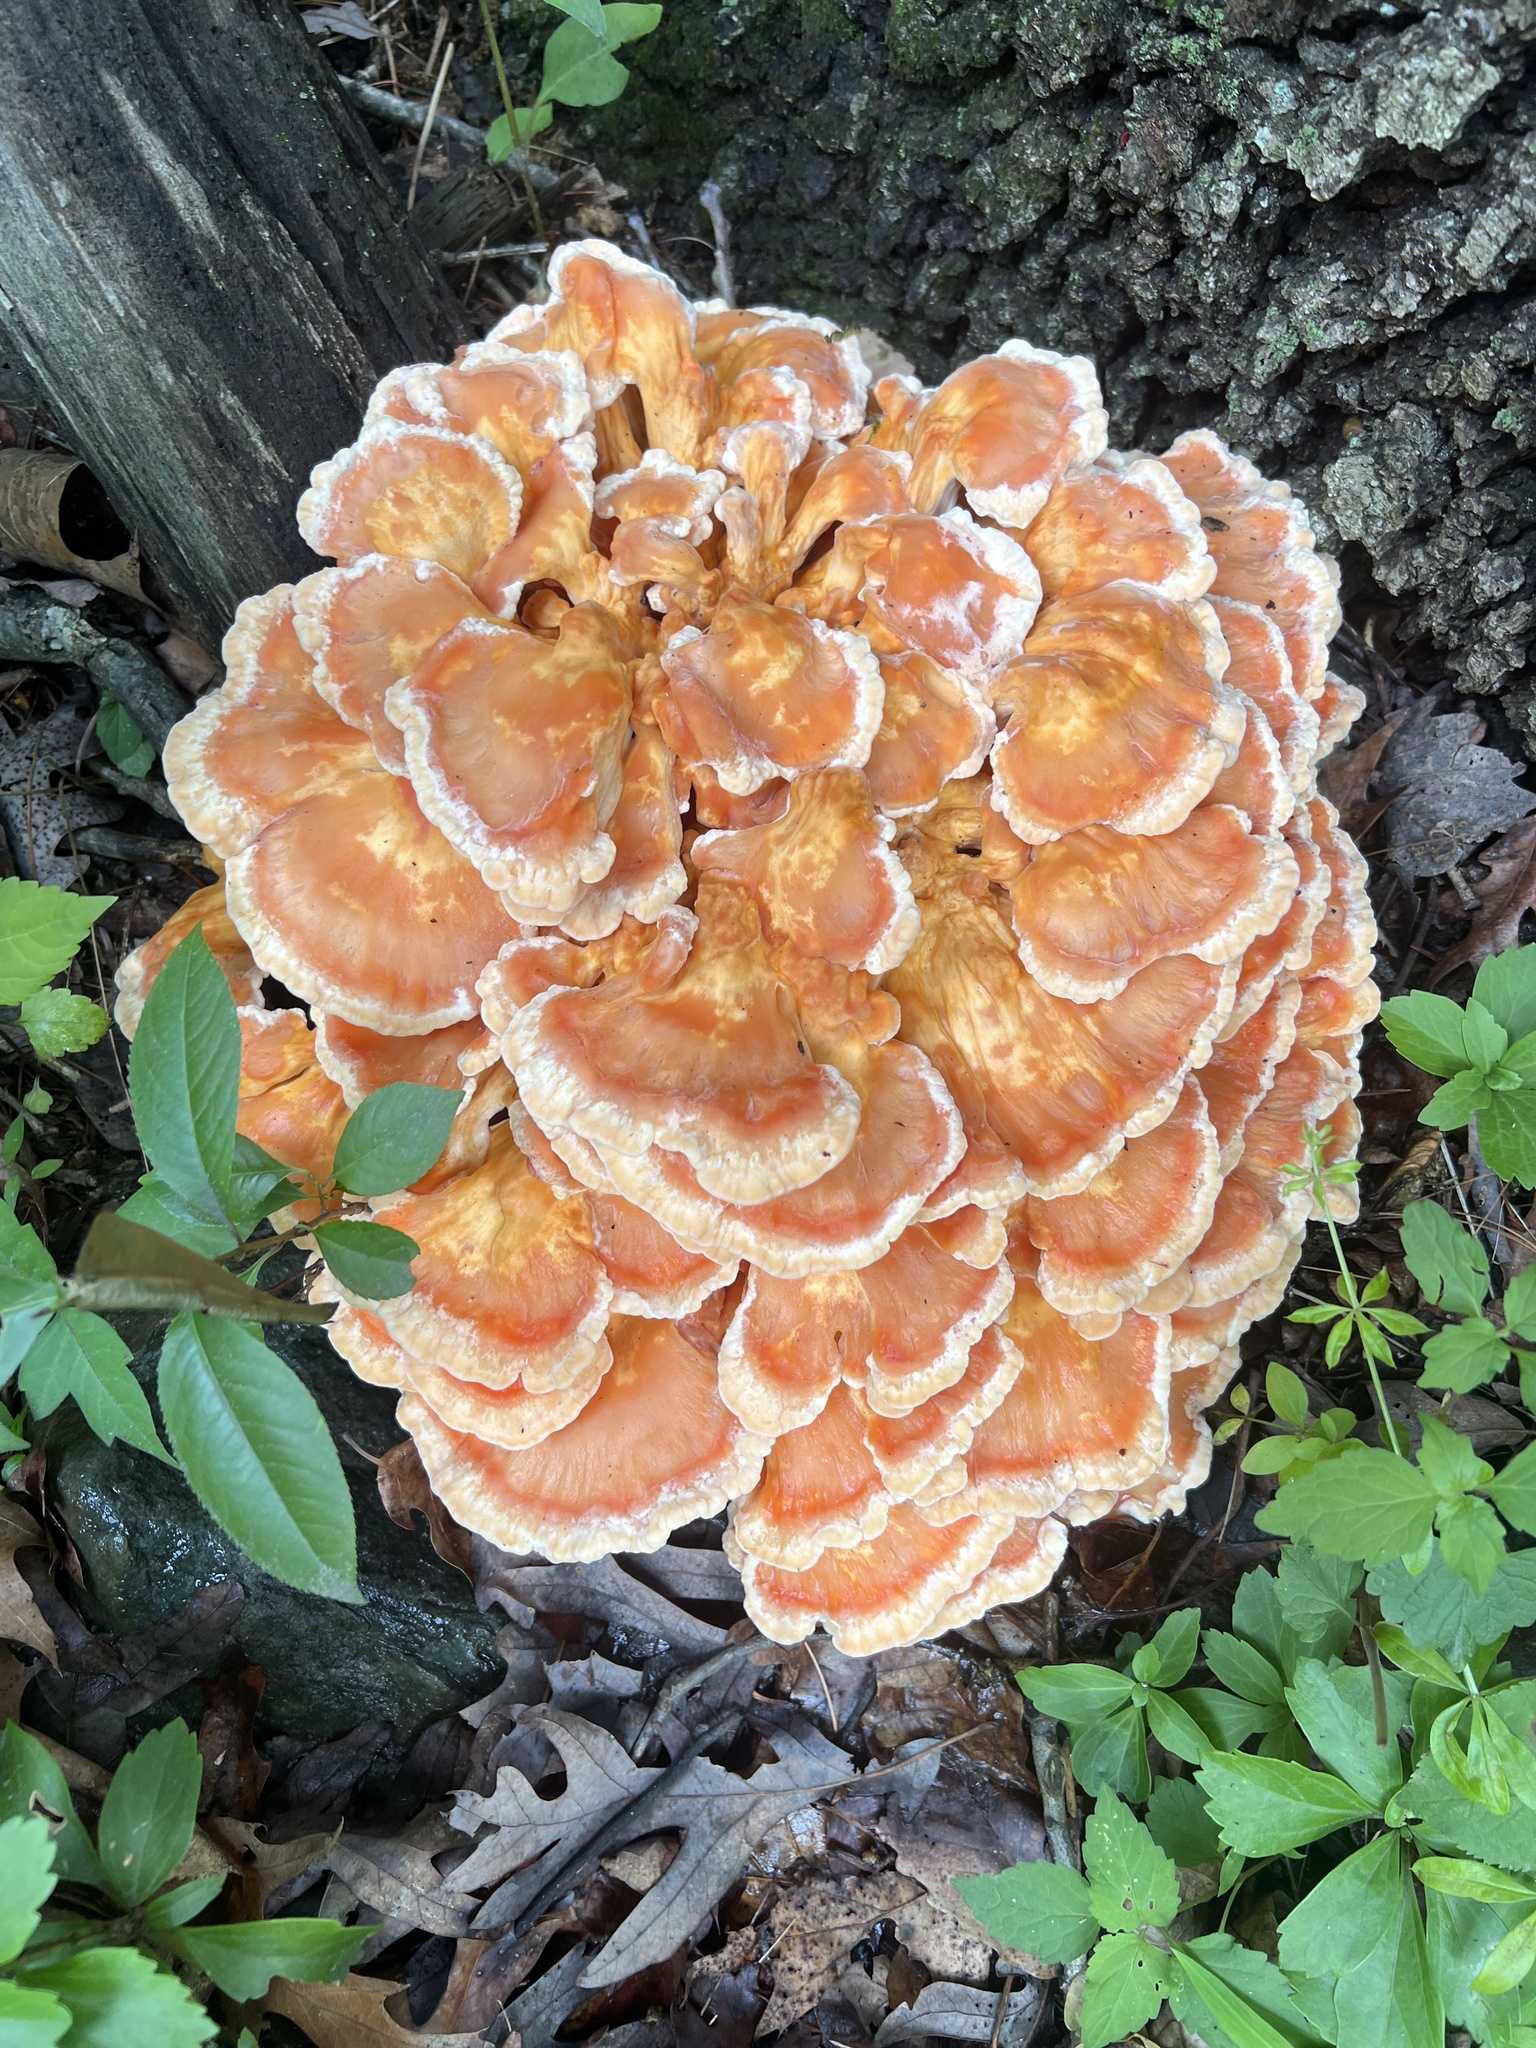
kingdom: Fungi
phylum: Basidiomycota
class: Agaricomycetes
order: Polyporales
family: Laetiporaceae
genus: Laetiporus
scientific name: Laetiporus sulphureus
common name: Chicken of the woods
